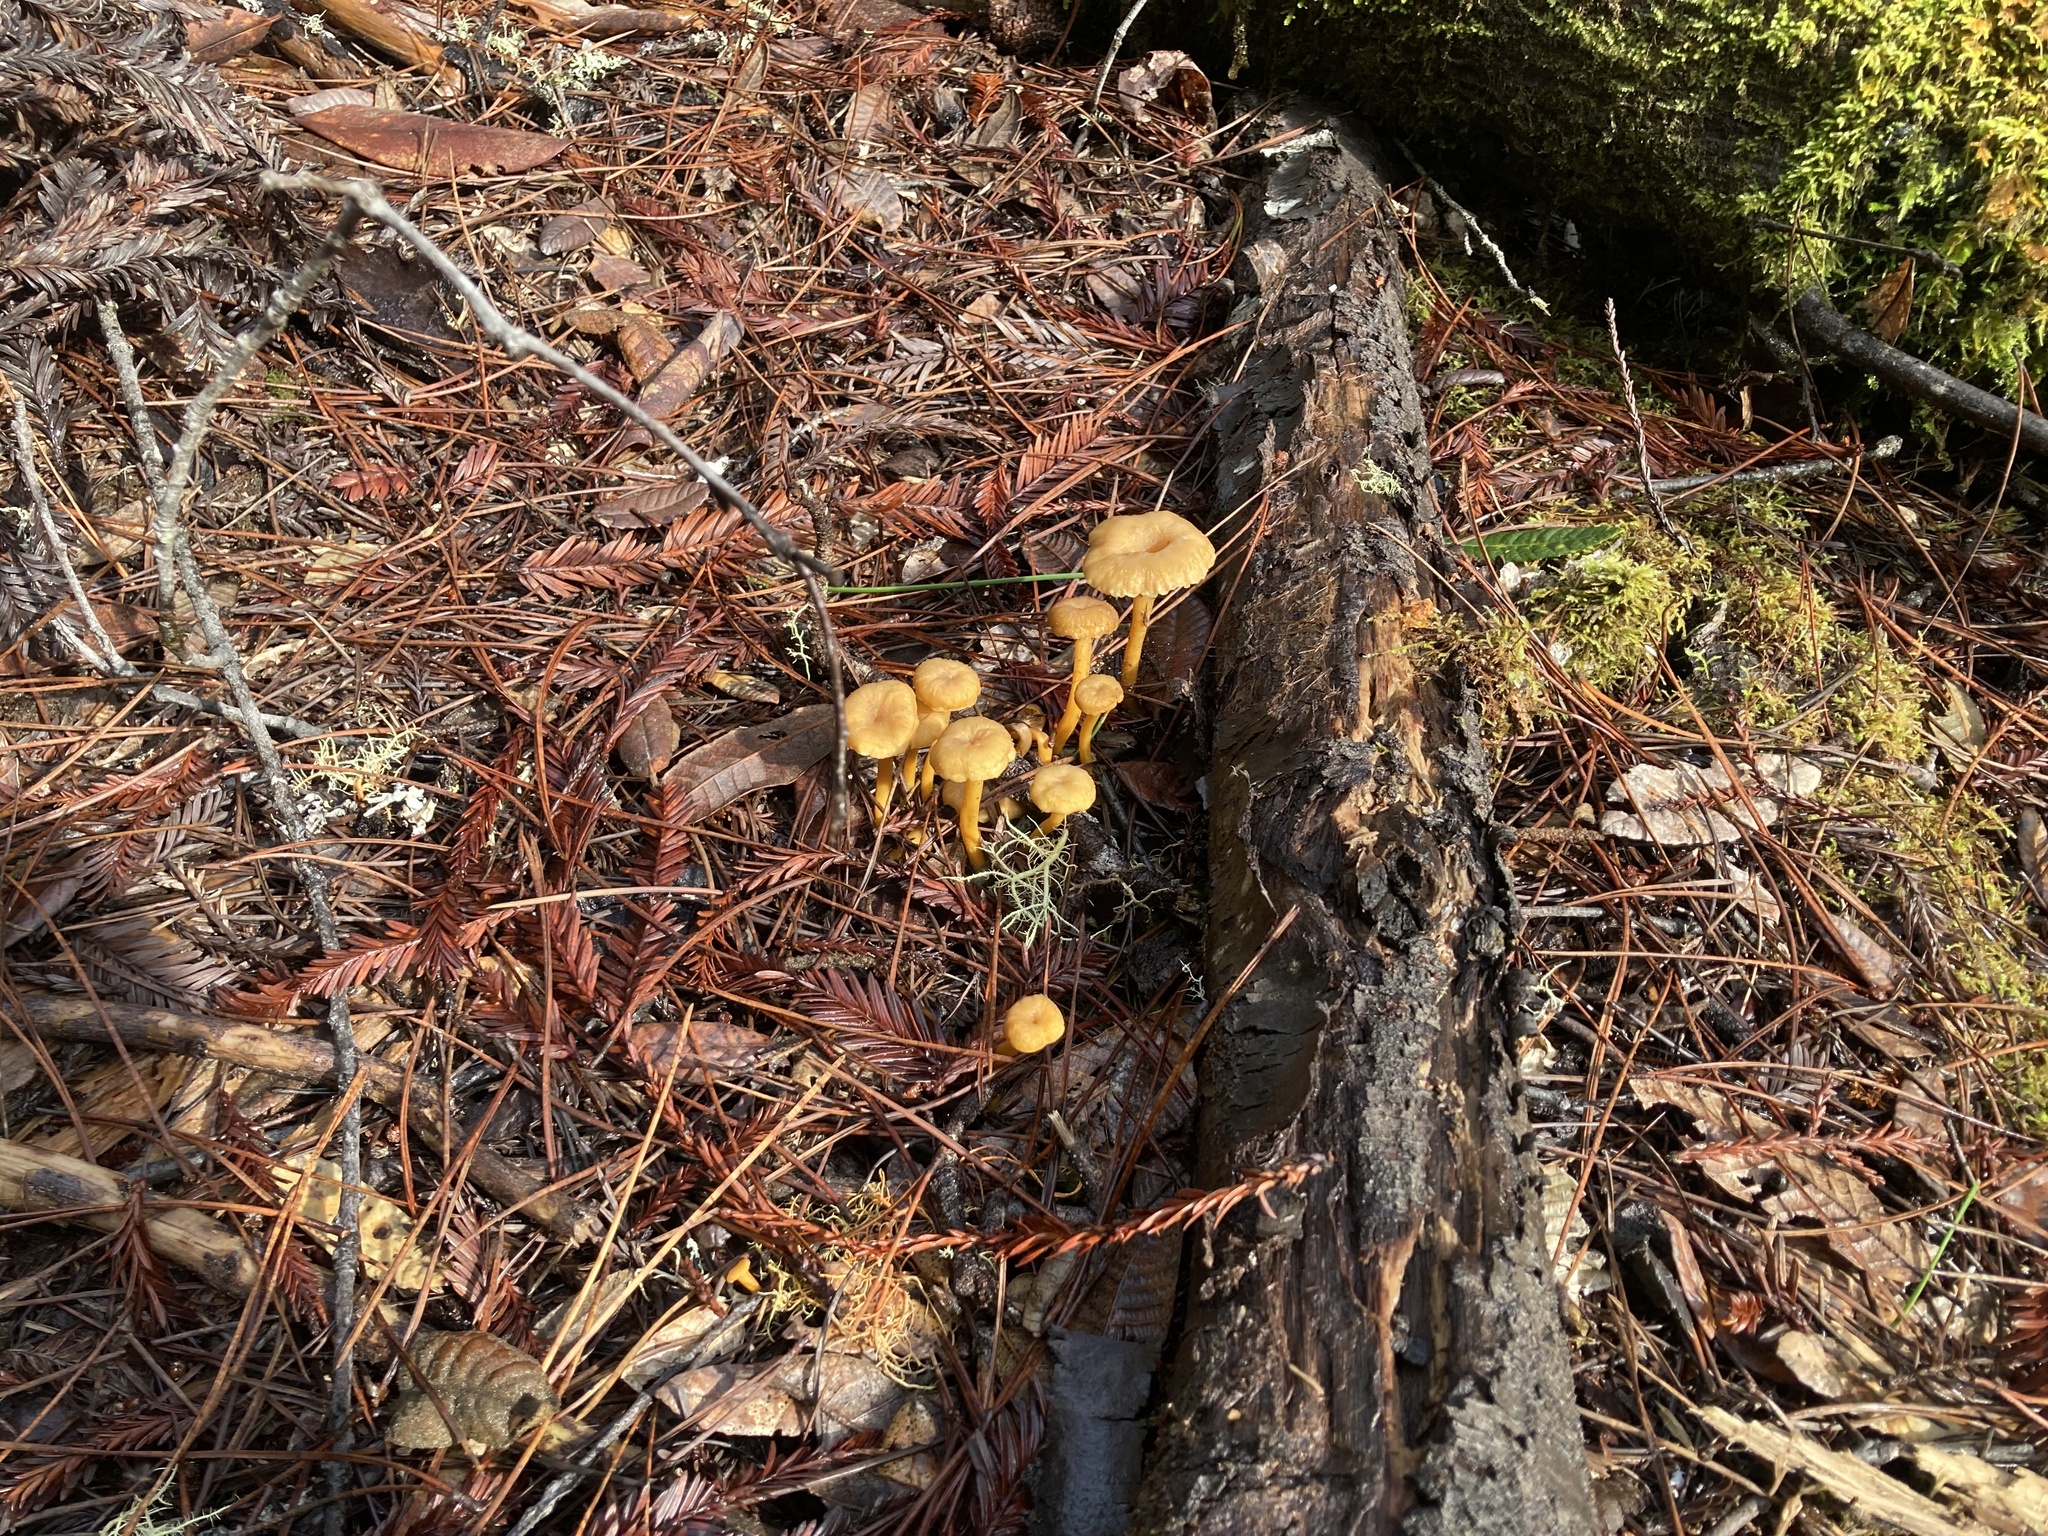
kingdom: Fungi
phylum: Basidiomycota
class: Agaricomycetes
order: Cantharellales
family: Hydnaceae
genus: Craterellus
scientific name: Craterellus tubaeformis
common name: Yellowfoot
